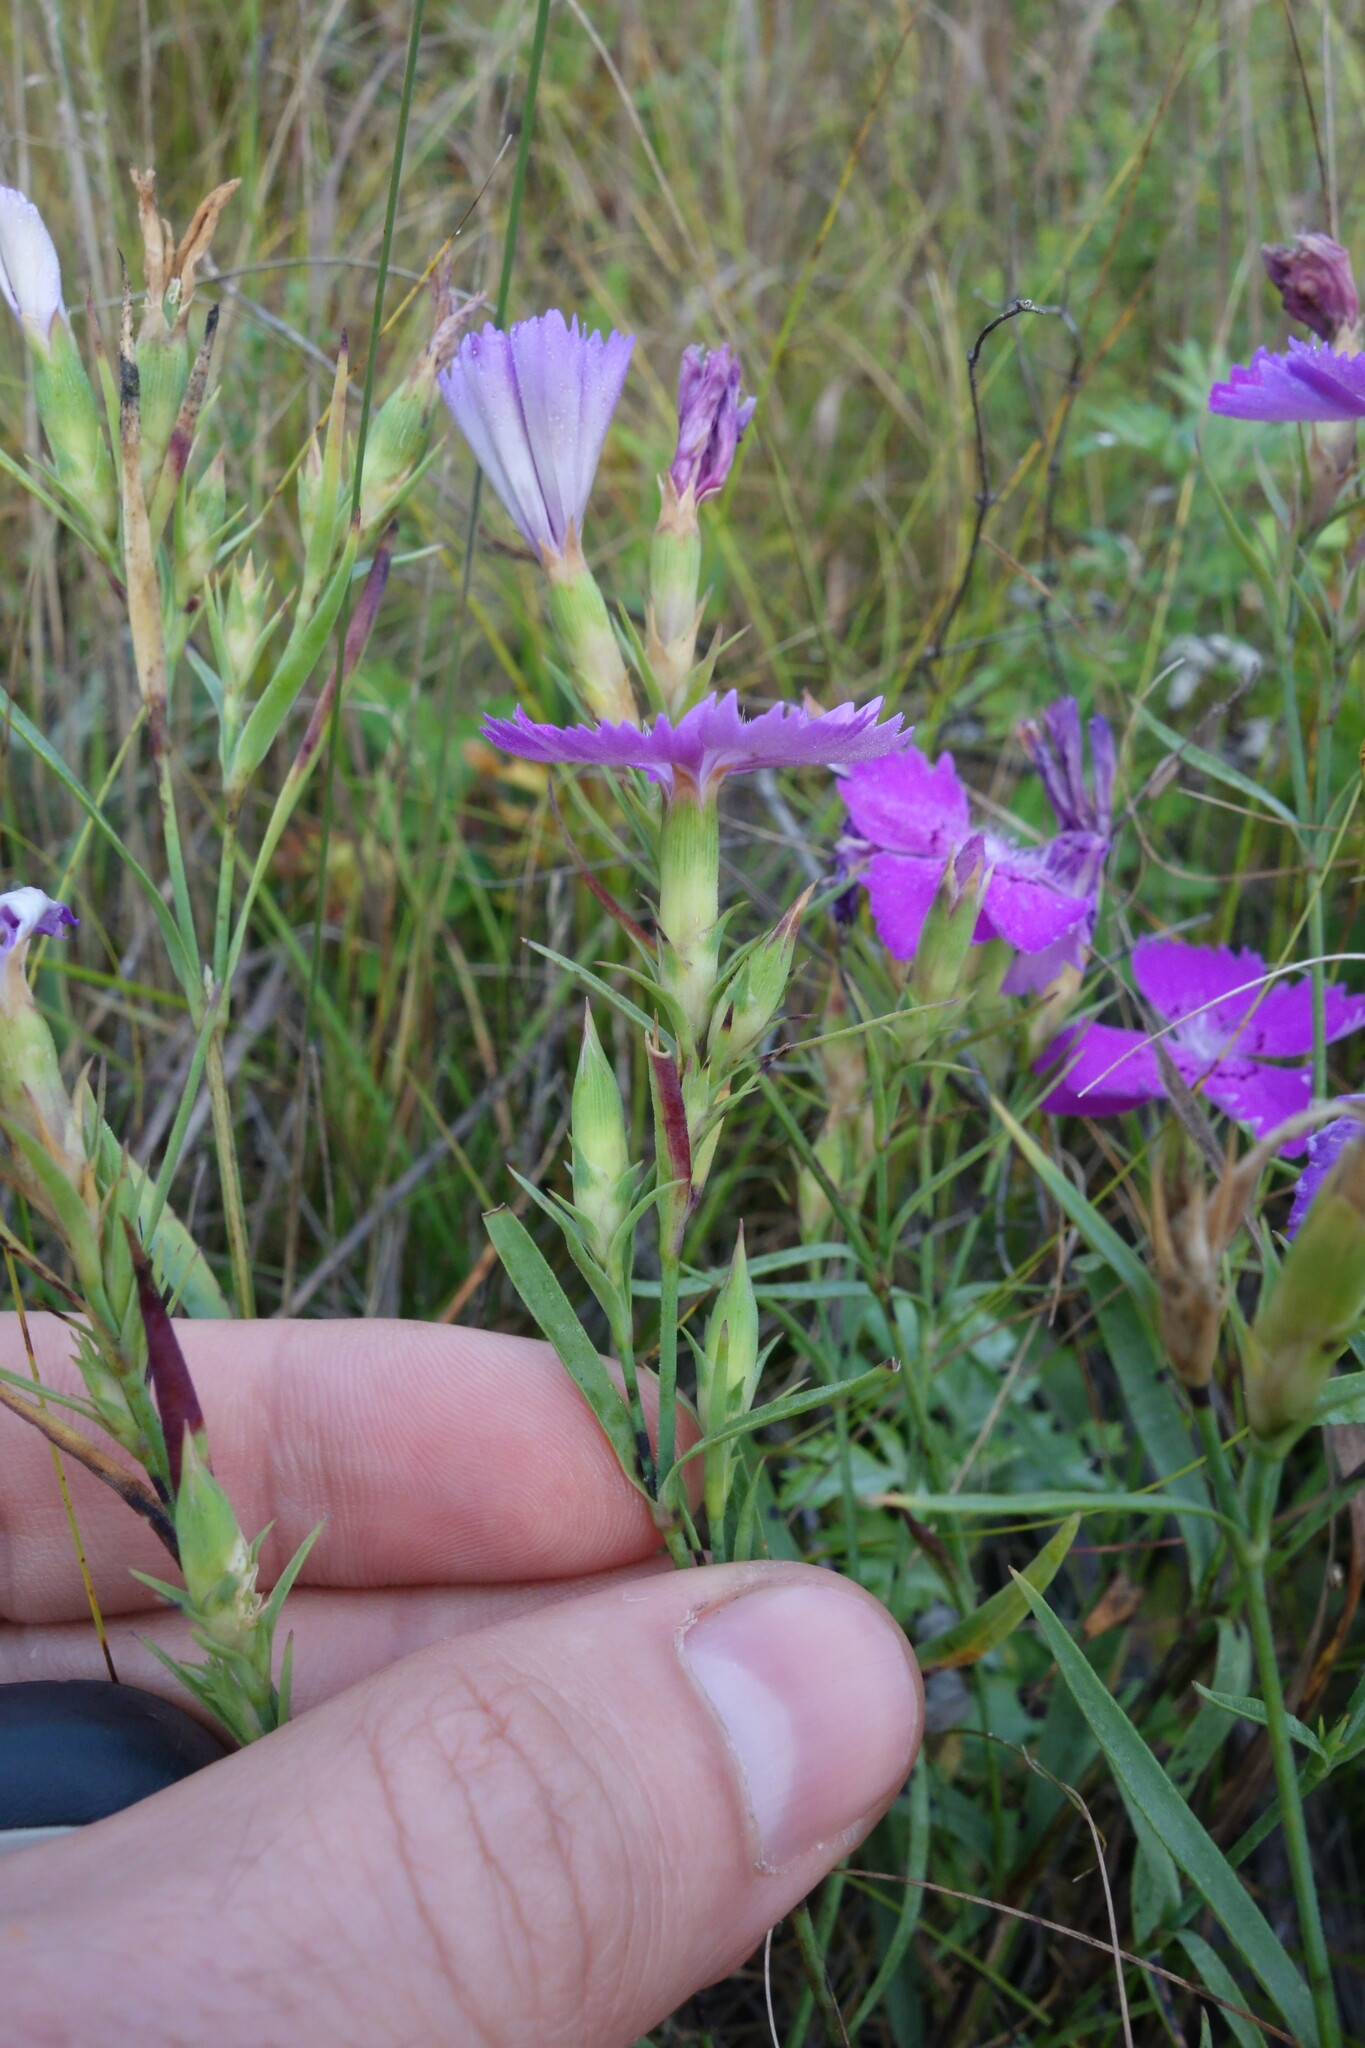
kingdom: Plantae
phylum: Tracheophyta
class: Magnoliopsida
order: Caryophyllales
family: Caryophyllaceae
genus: Dianthus
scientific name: Dianthus chinensis
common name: Rainbow pink
